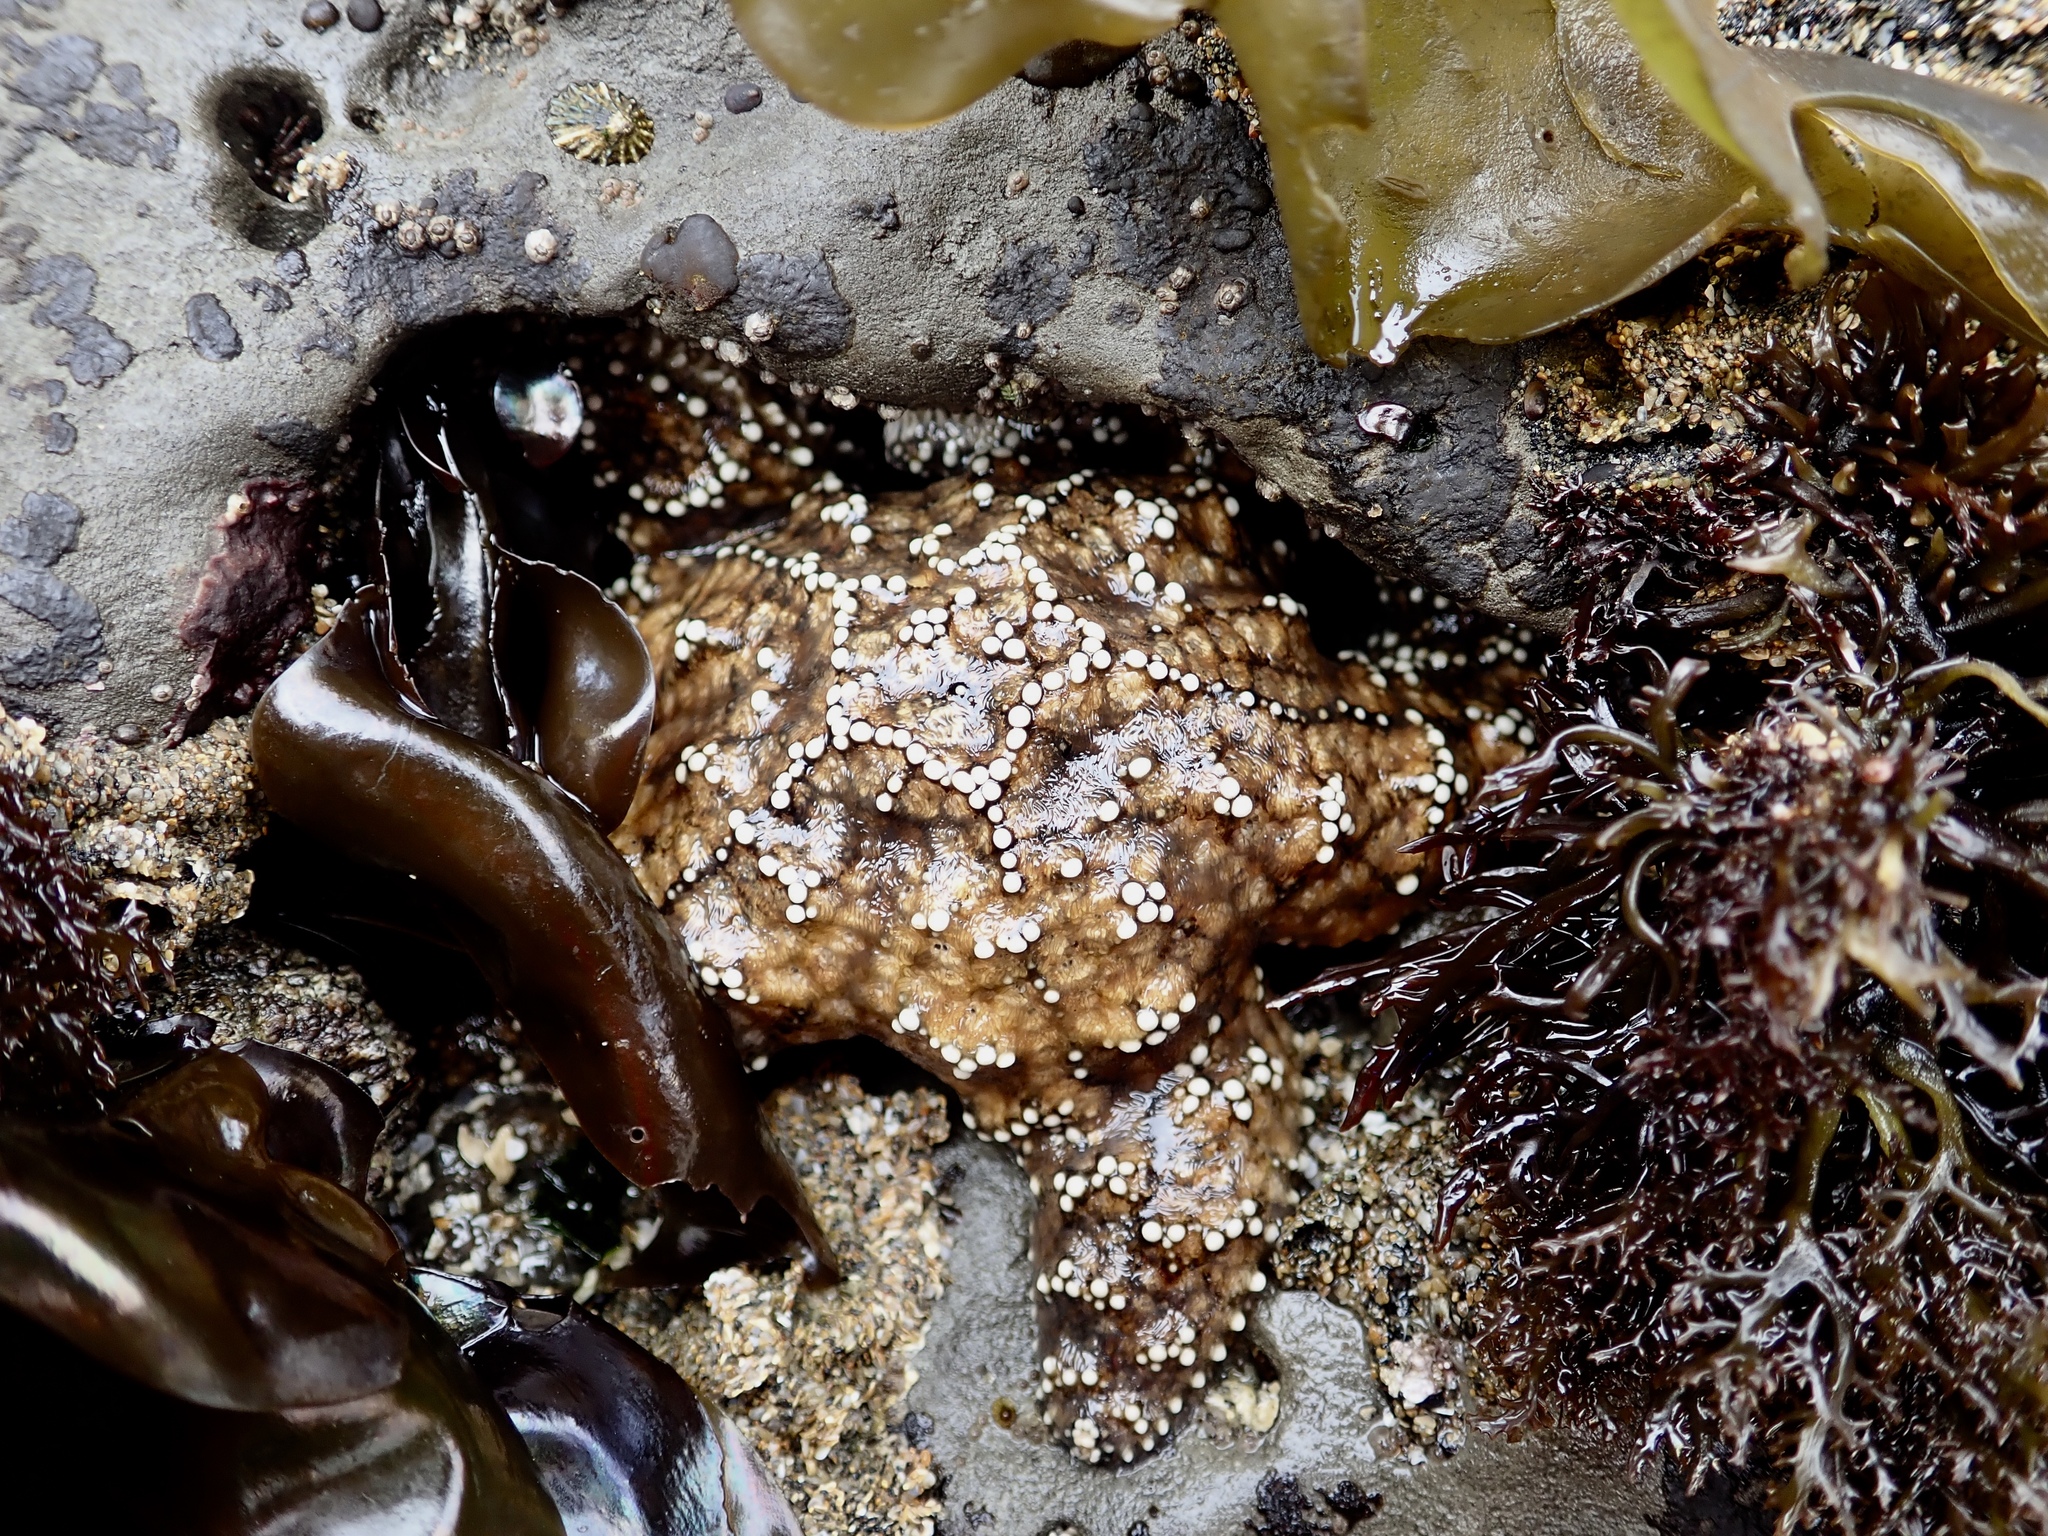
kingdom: Animalia
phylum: Echinodermata
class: Asteroidea
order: Forcipulatida
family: Asteriidae
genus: Pisaster
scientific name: Pisaster ochraceus
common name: Ochre stars
